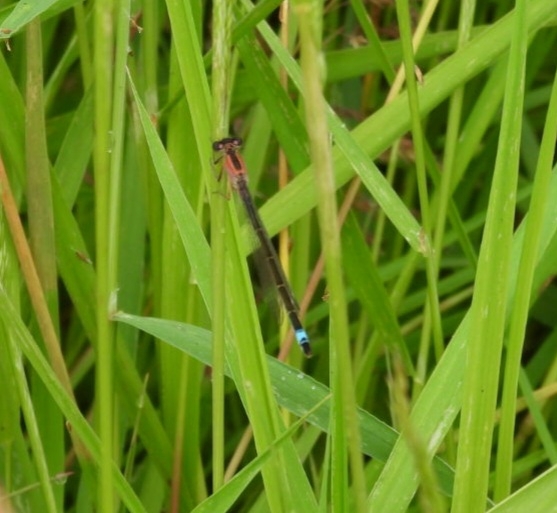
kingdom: Animalia
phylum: Arthropoda
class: Insecta
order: Odonata
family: Coenagrionidae
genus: Ischnura
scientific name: Ischnura elegans
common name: Blue-tailed damselfly
